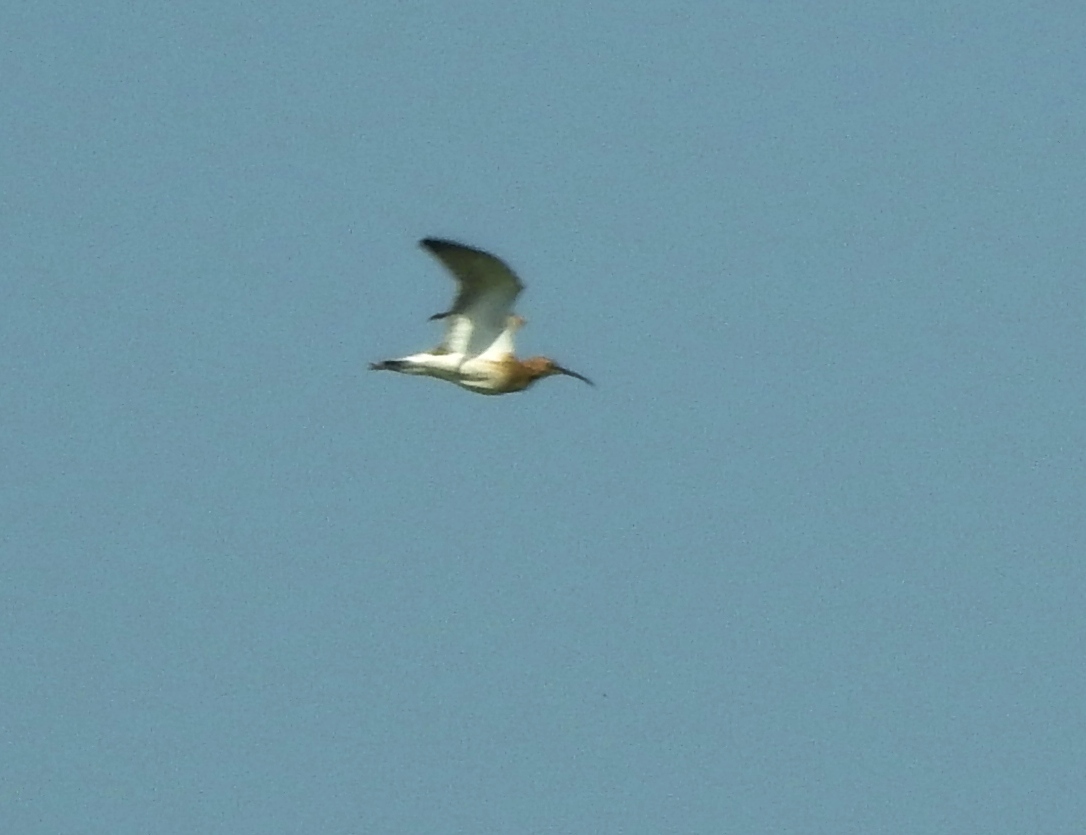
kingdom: Animalia
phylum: Chordata
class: Aves
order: Charadriiformes
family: Scolopacidae
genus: Numenius
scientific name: Numenius arquata
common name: Eurasian curlew
